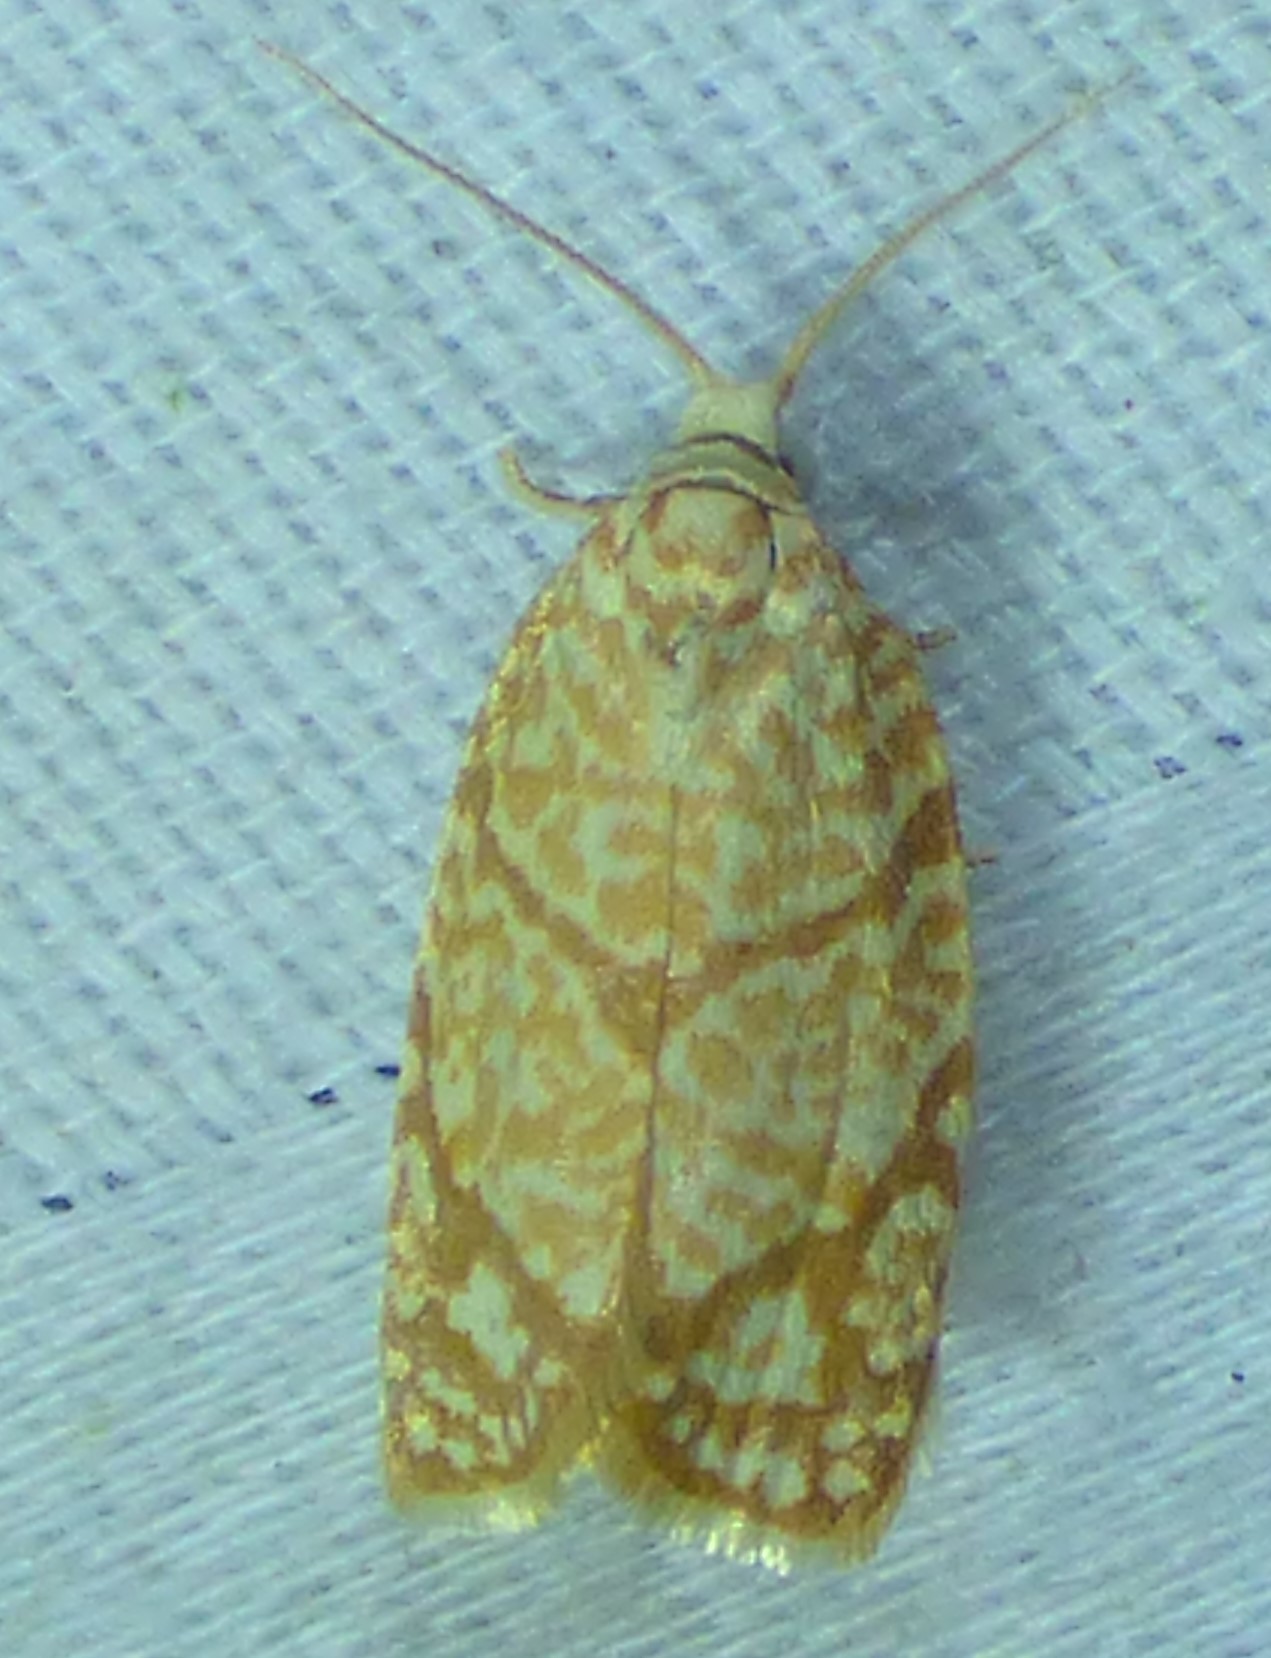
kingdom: Animalia
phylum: Arthropoda
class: Insecta
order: Lepidoptera
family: Tortricidae
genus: Argyrotaenia
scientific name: Argyrotaenia quercifoliana
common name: Yellow-winged oak leafroller moth
